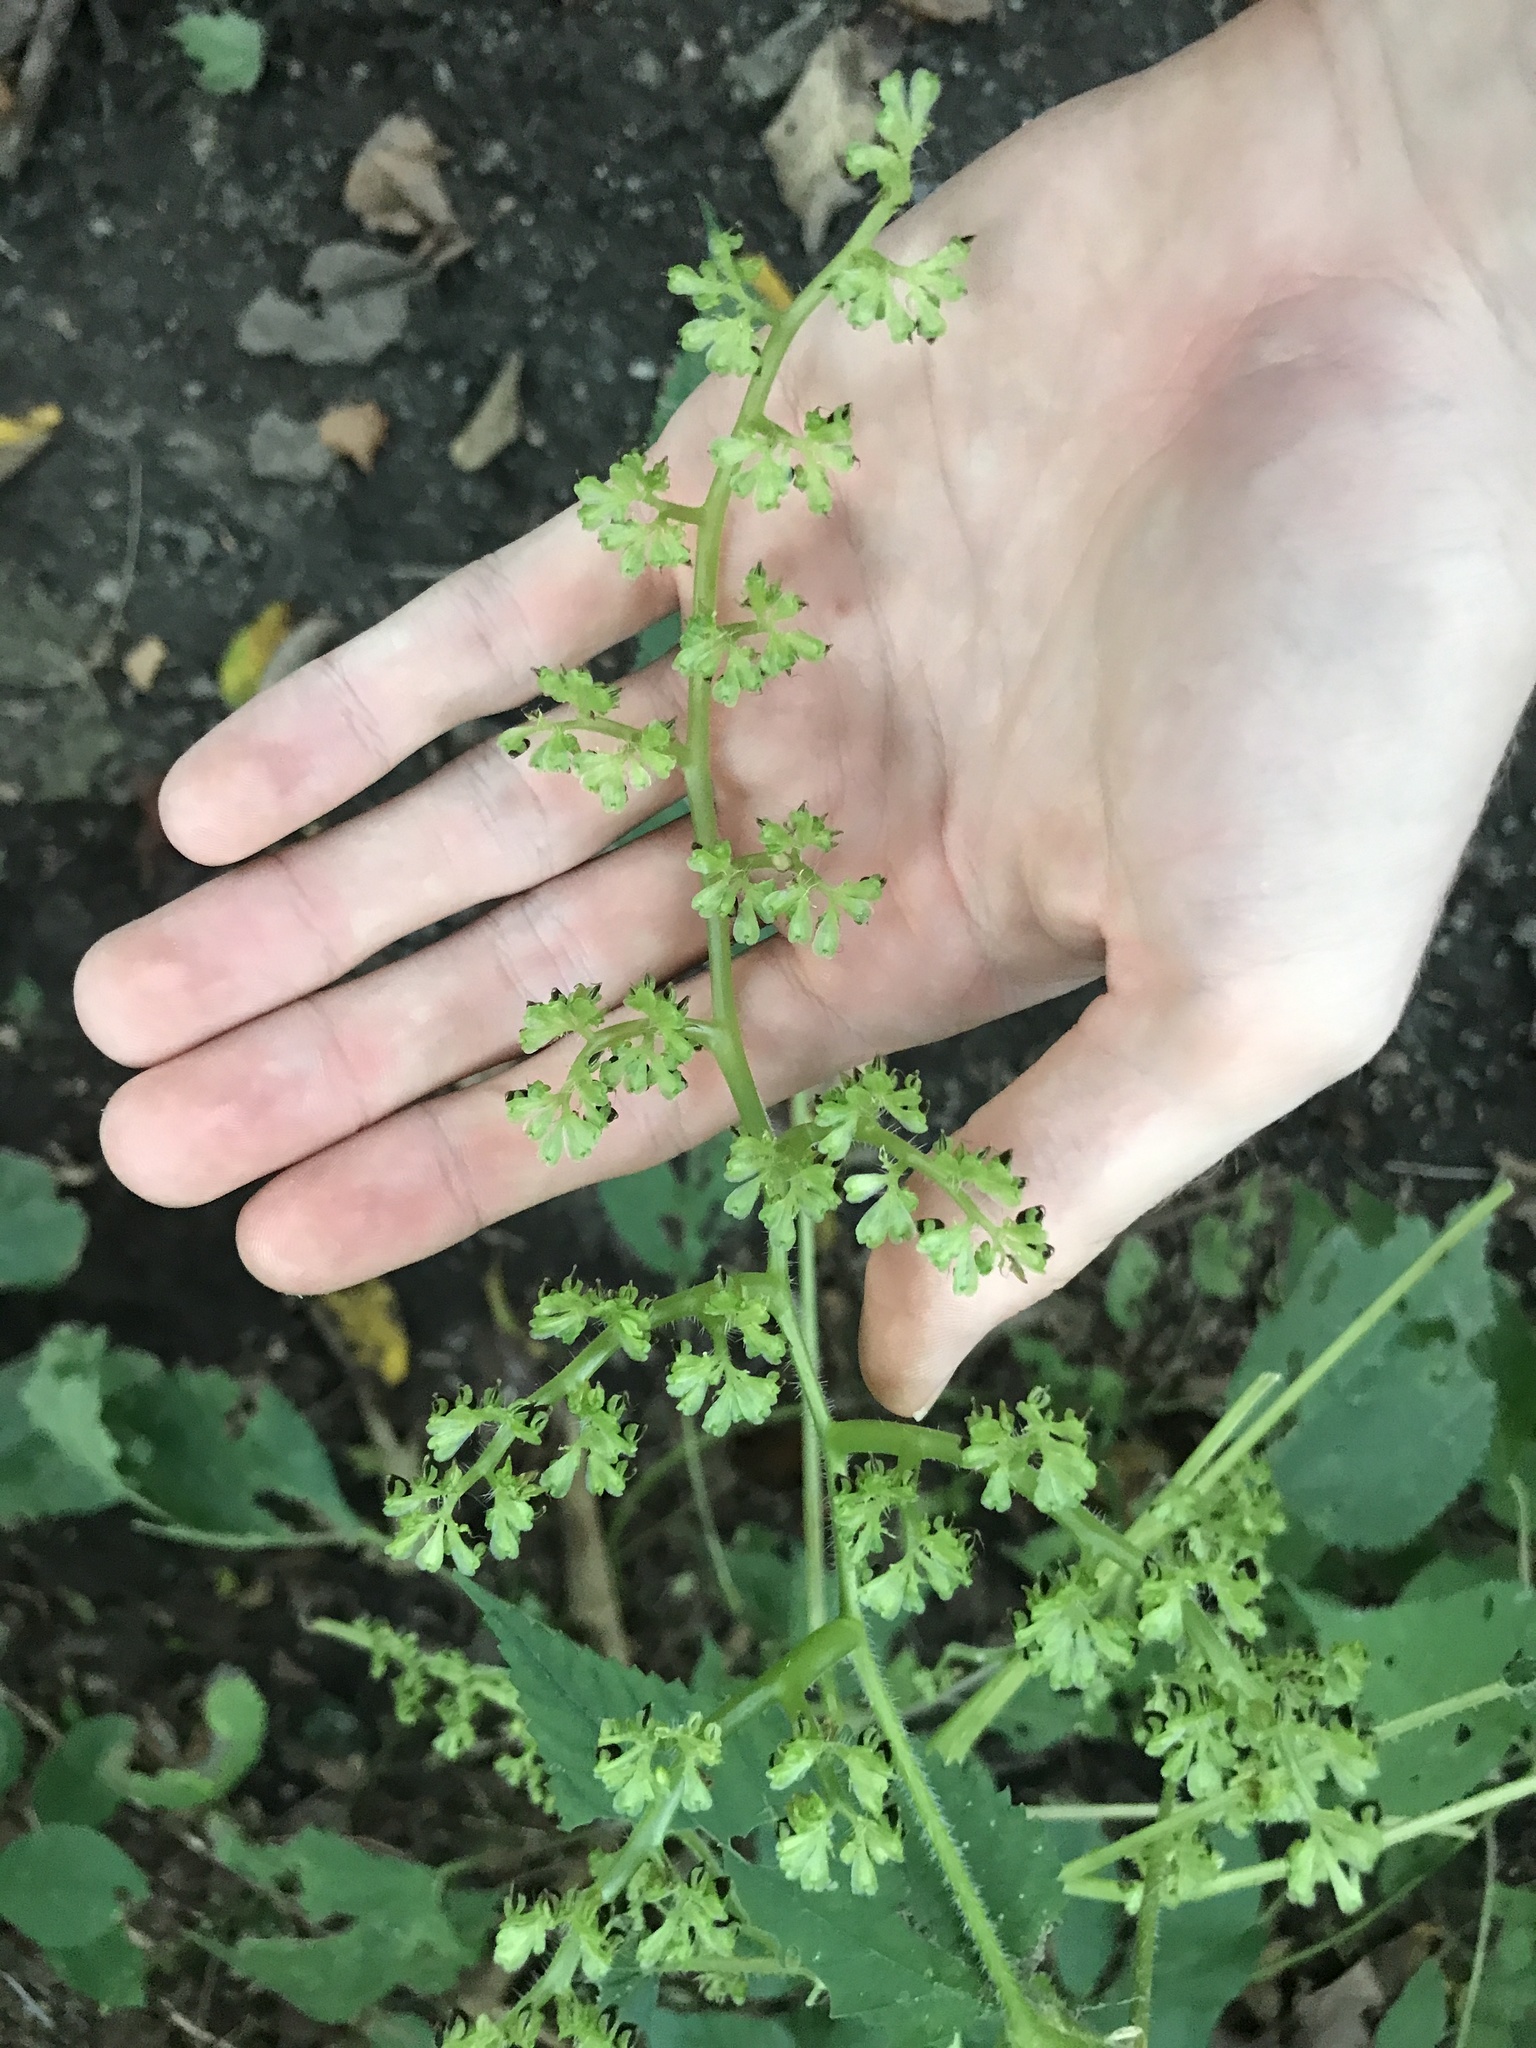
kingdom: Plantae
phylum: Tracheophyta
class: Magnoliopsida
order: Rosales
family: Urticaceae
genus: Laportea
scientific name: Laportea canadensis
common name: Canada nettle
